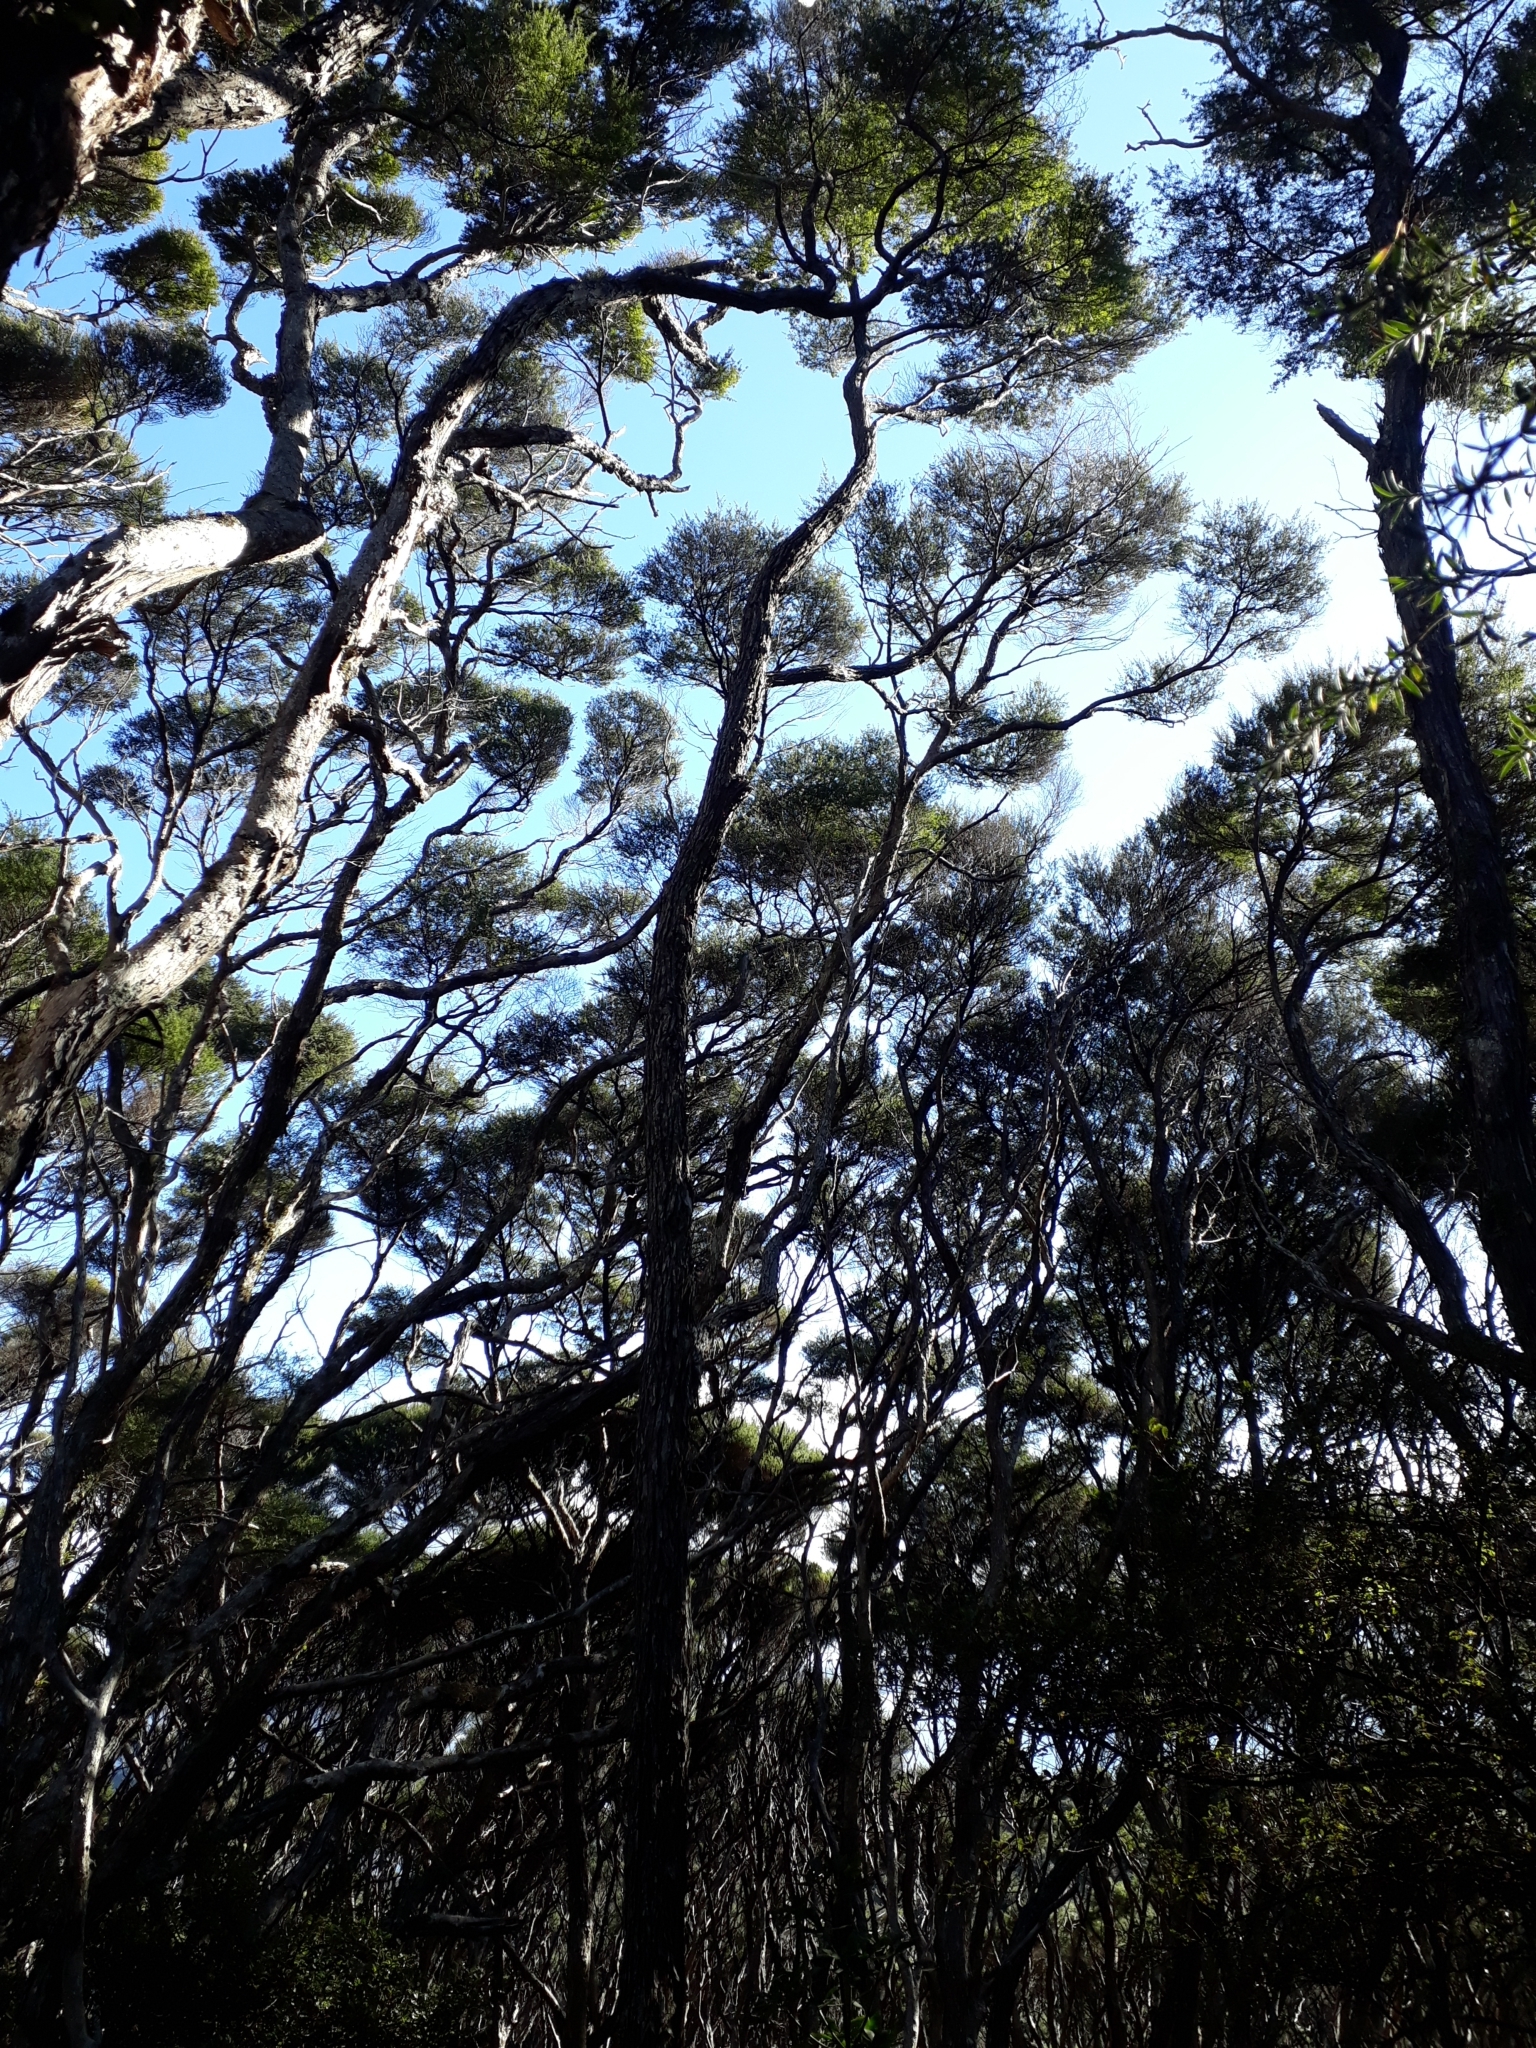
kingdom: Plantae
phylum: Tracheophyta
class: Magnoliopsida
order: Myrtales
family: Myrtaceae
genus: Kunzea
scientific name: Kunzea robusta
